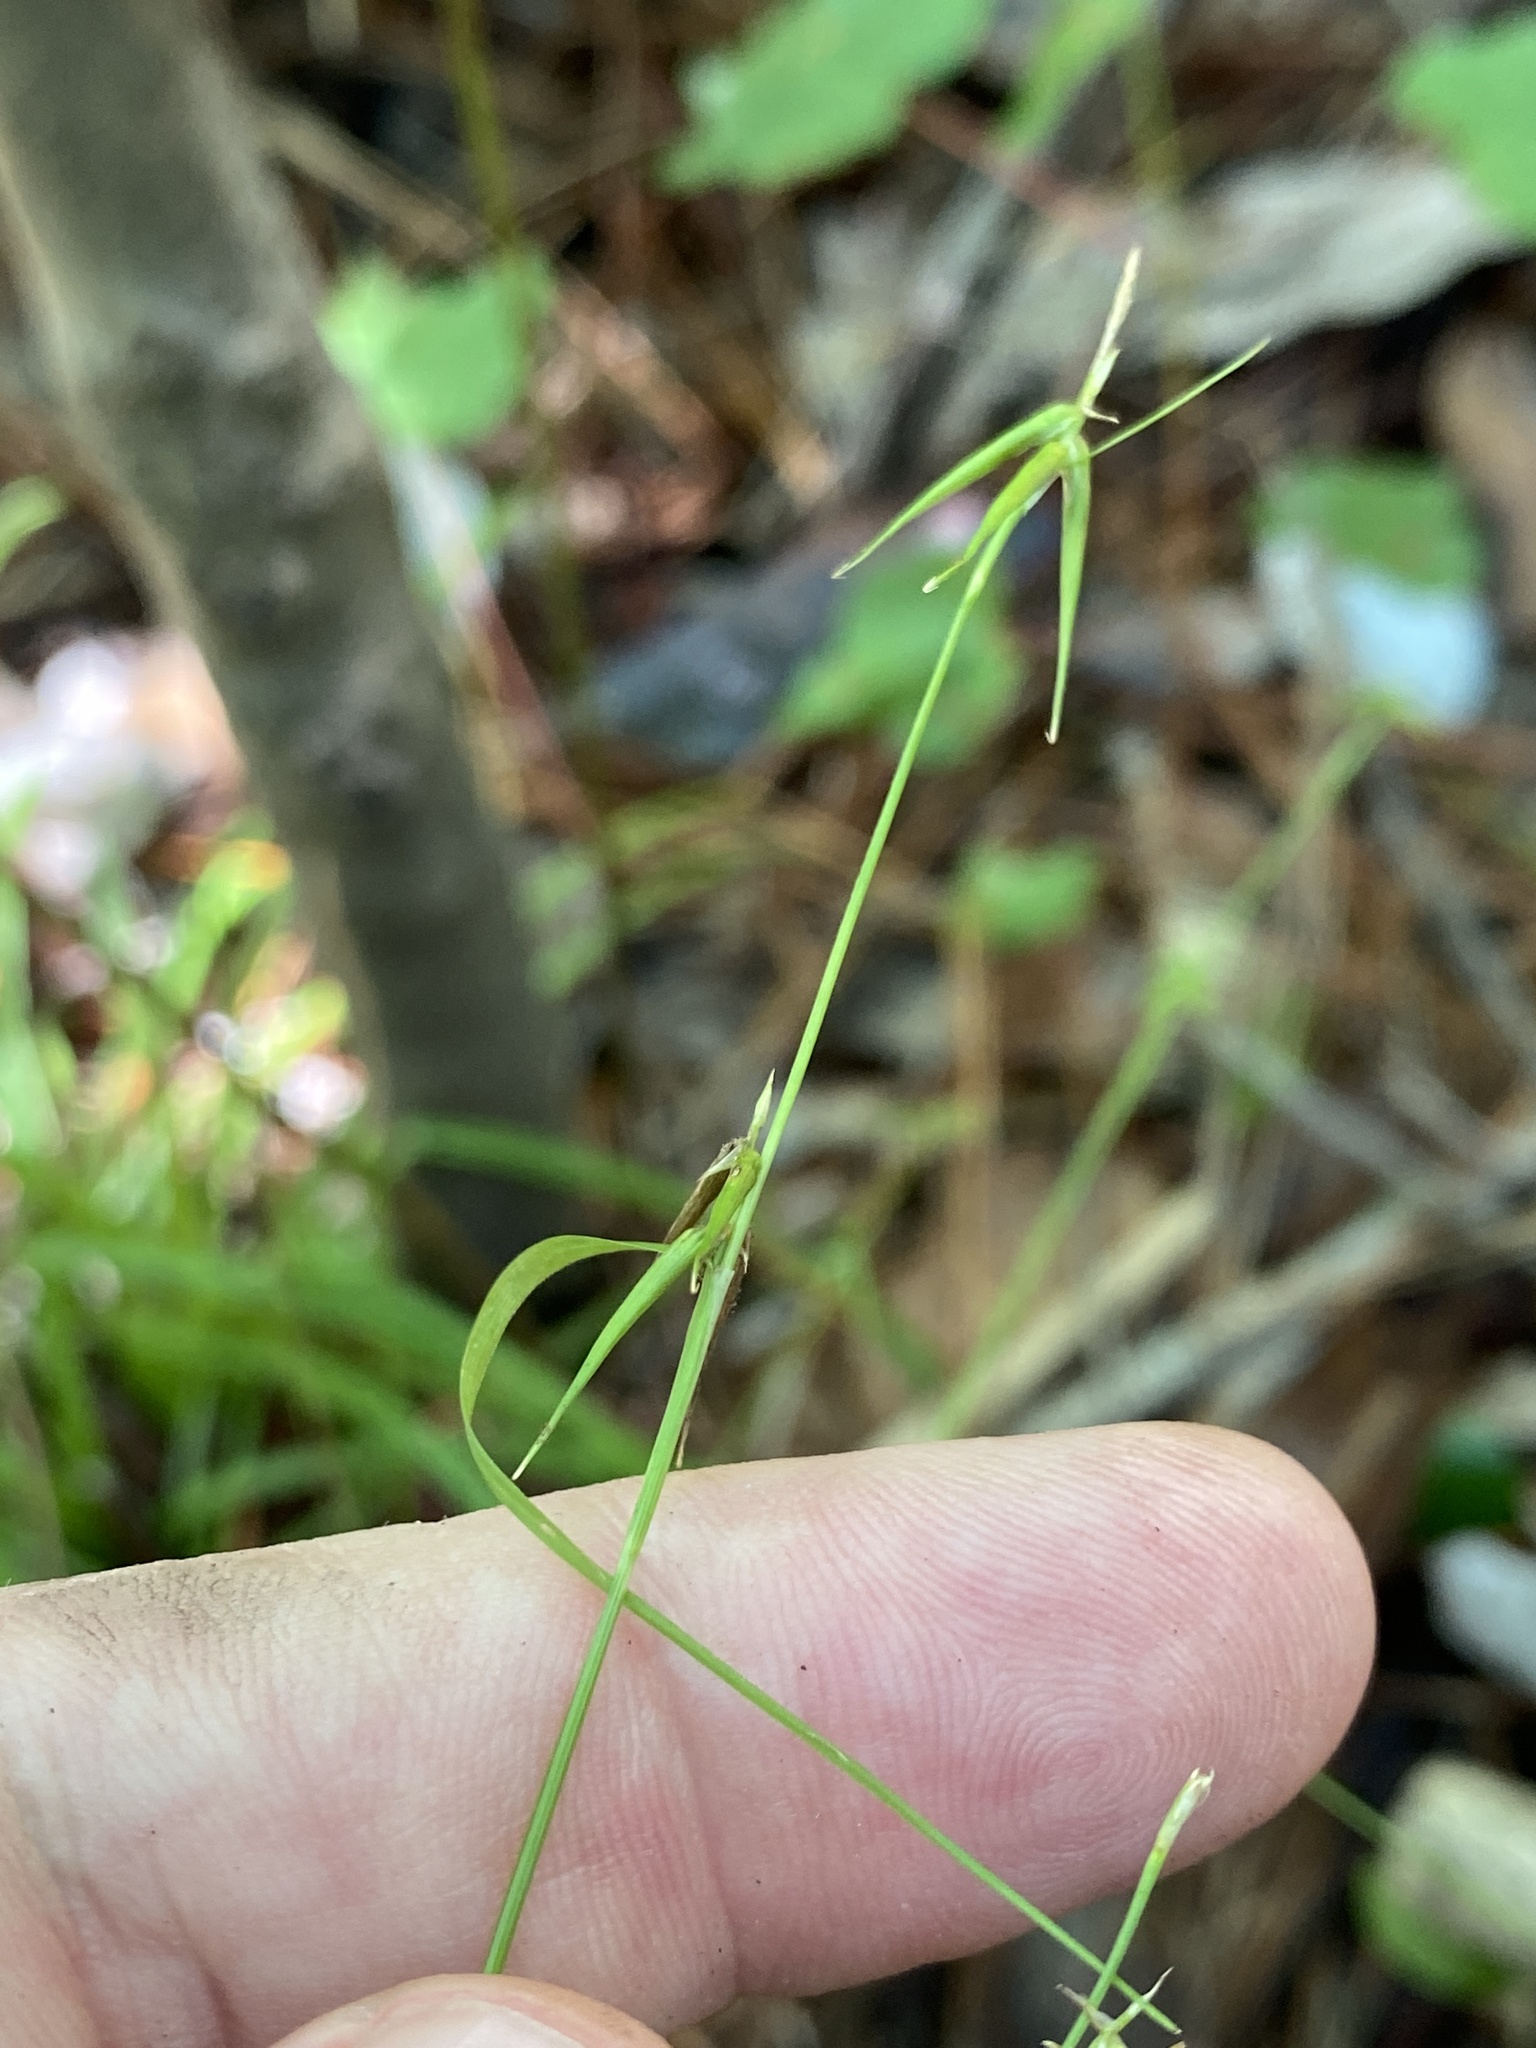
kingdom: Plantae
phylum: Tracheophyta
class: Liliopsida
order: Poales
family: Cyperaceae
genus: Carex
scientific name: Carex collinsii
